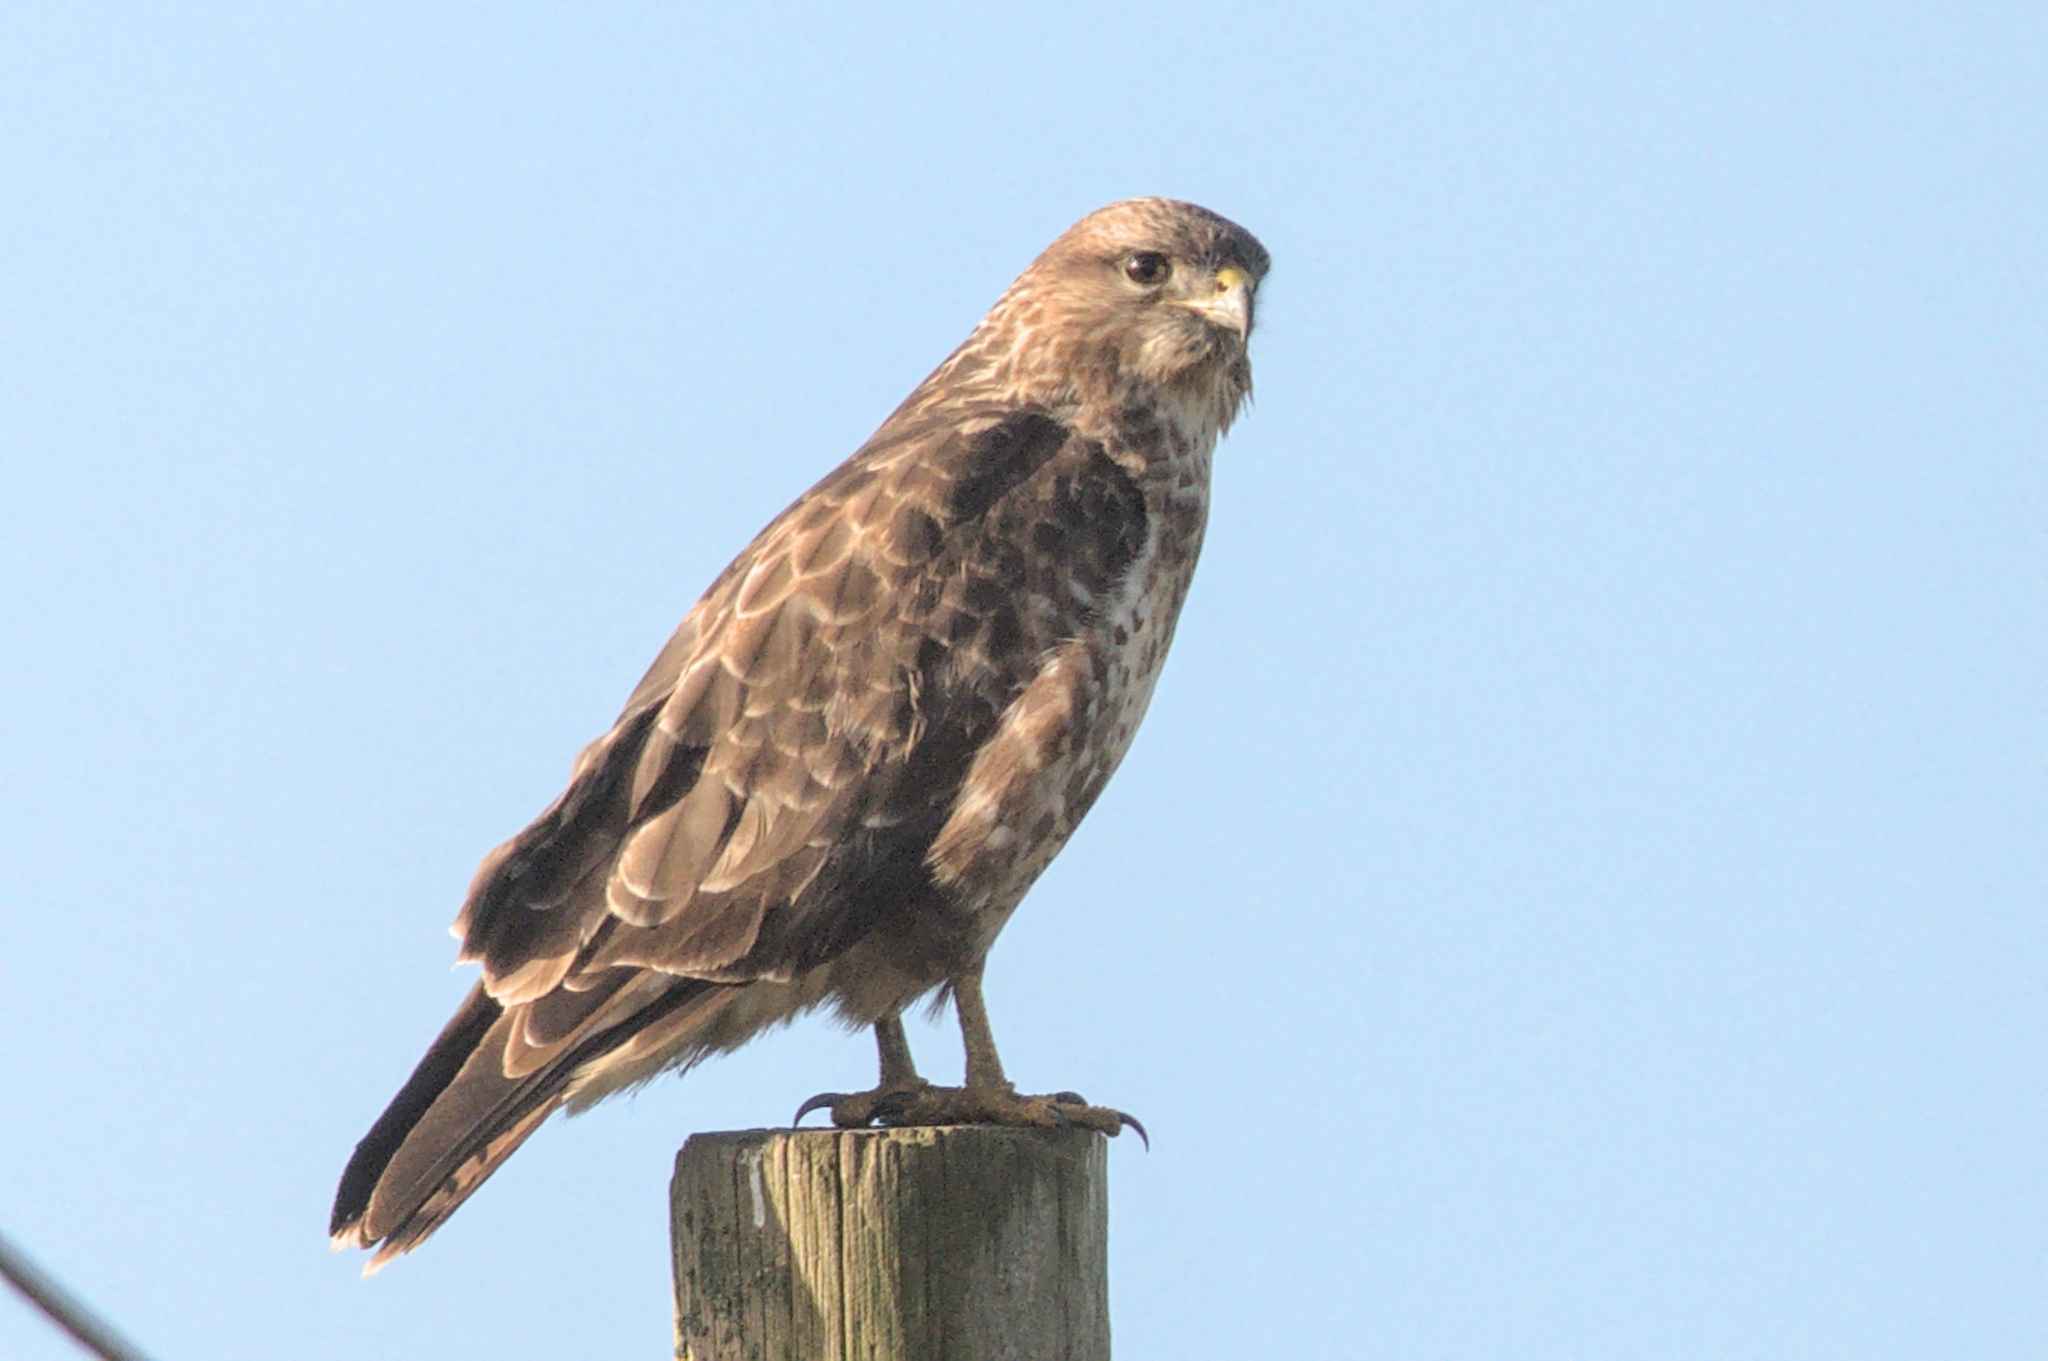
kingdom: Animalia
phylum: Chordata
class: Aves
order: Accipitriformes
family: Accipitridae
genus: Buteo
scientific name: Buteo buteo
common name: Common buzzard
